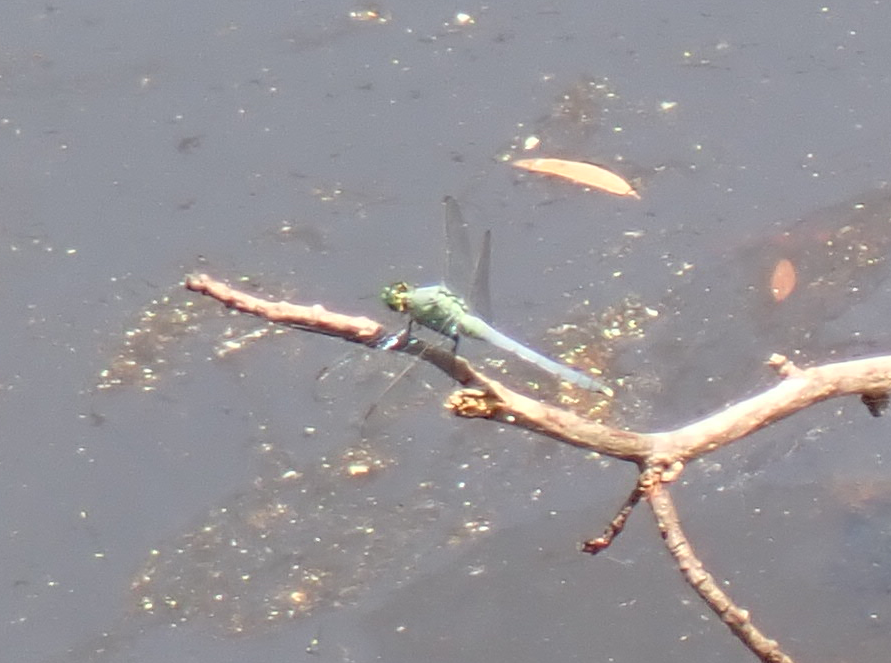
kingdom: Animalia
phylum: Arthropoda
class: Insecta
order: Odonata
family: Libellulidae
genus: Erythemis
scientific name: Erythemis simplicicollis
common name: Eastern pondhawk
